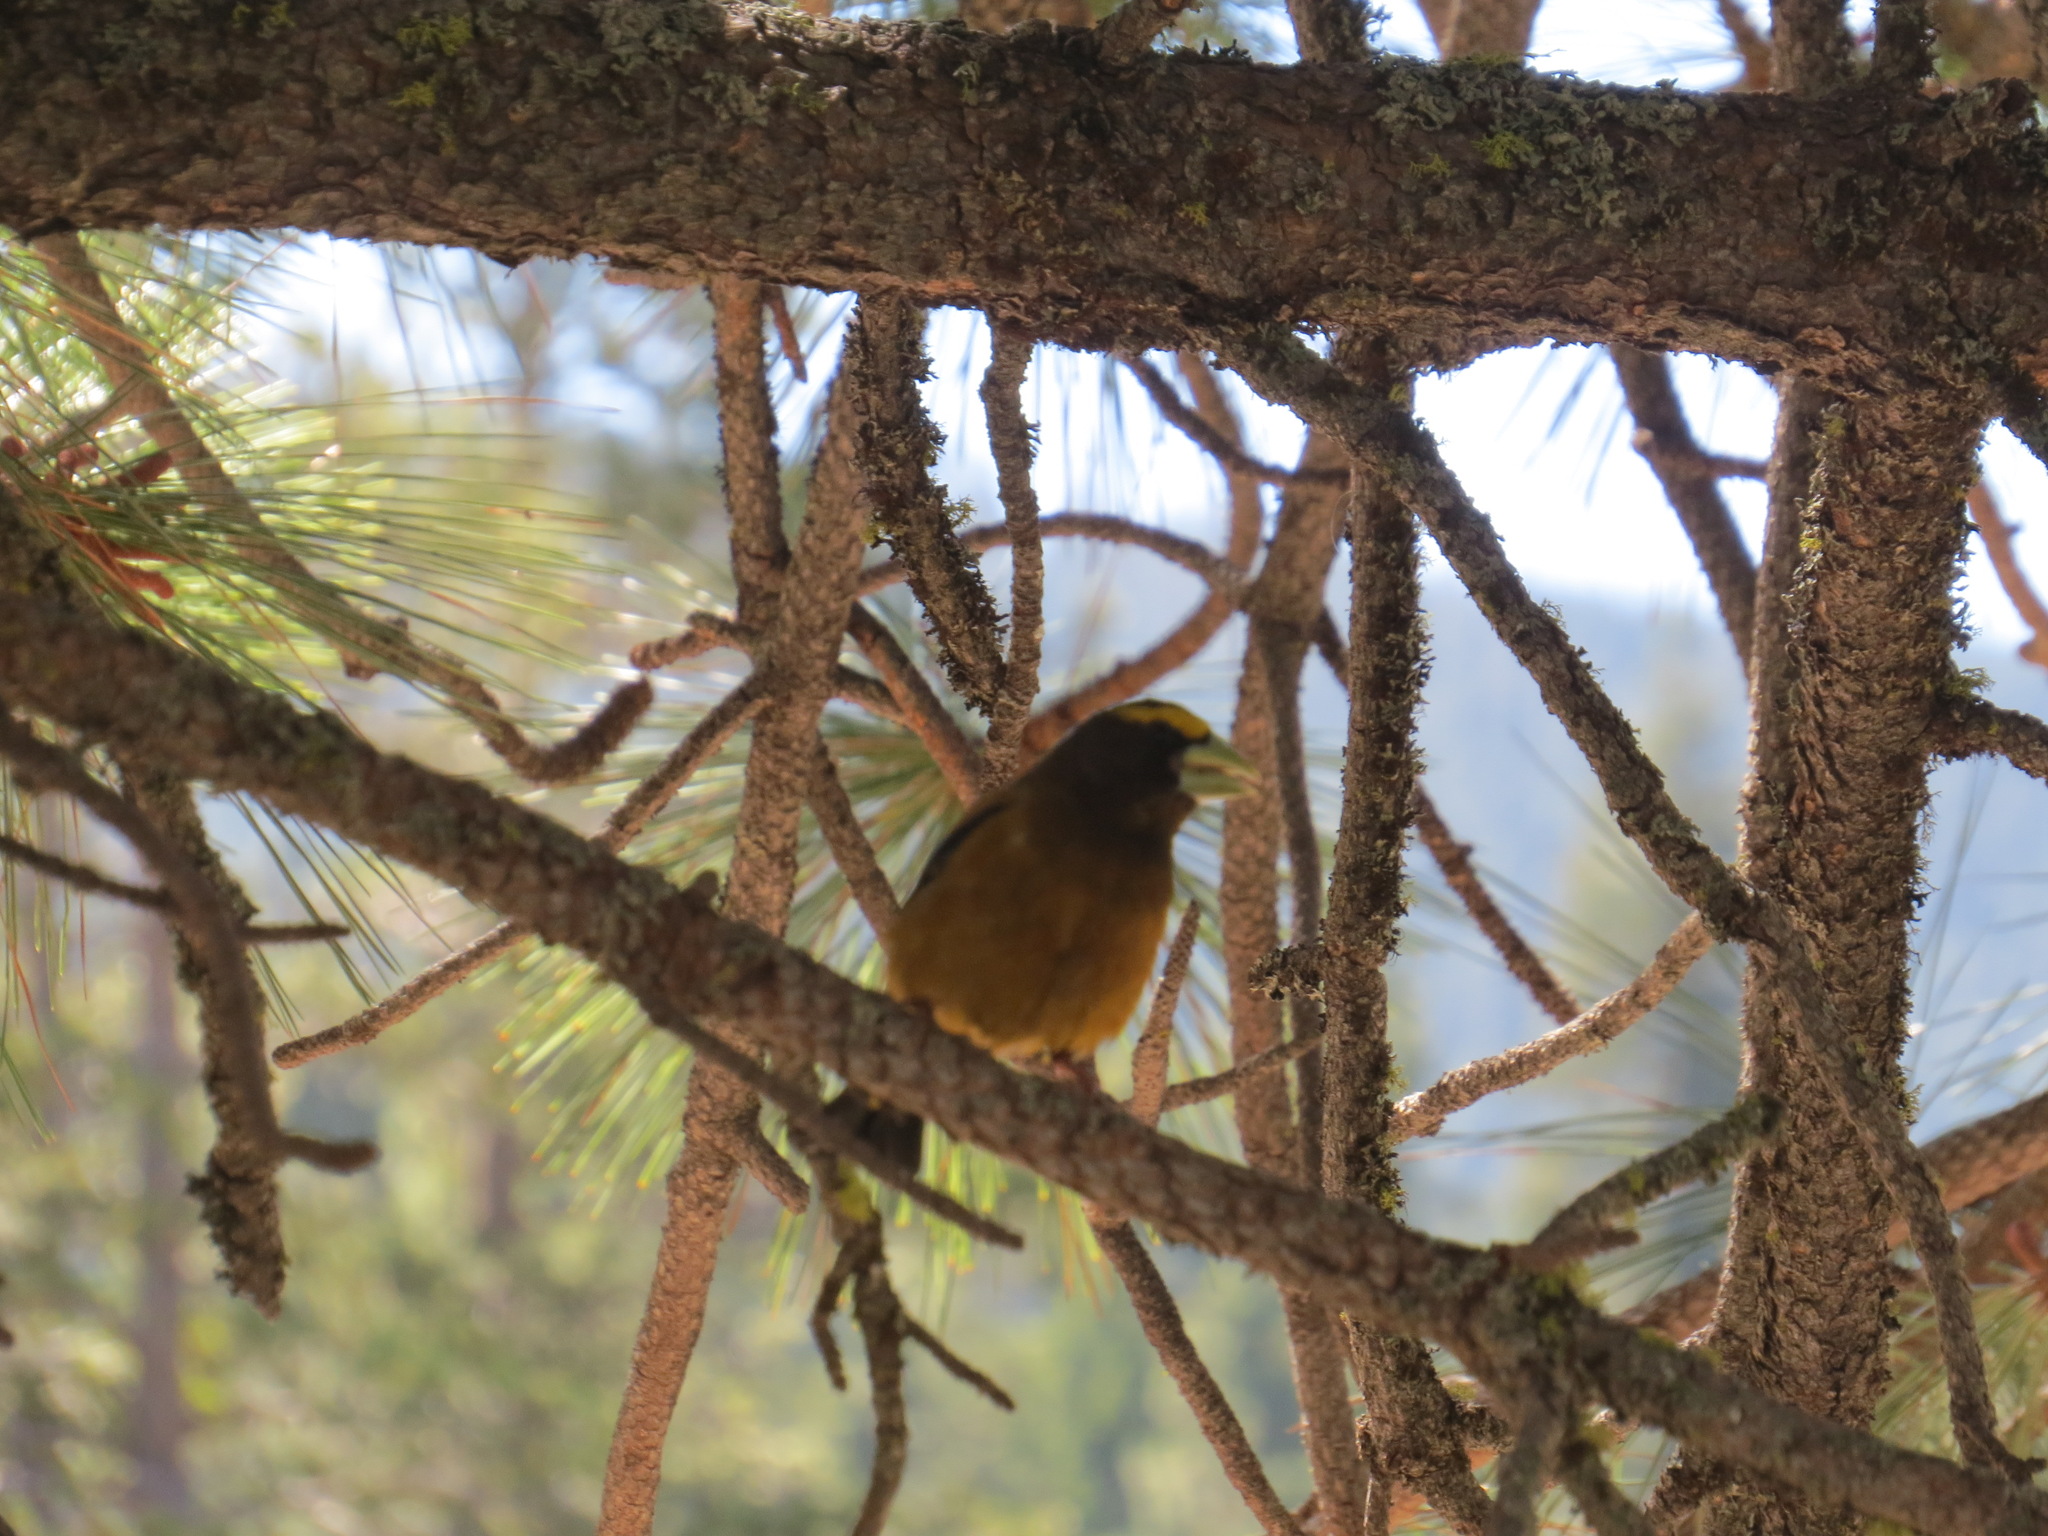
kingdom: Animalia
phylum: Chordata
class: Aves
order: Passeriformes
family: Fringillidae
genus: Hesperiphona
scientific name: Hesperiphona vespertina
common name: Evening grosbeak
